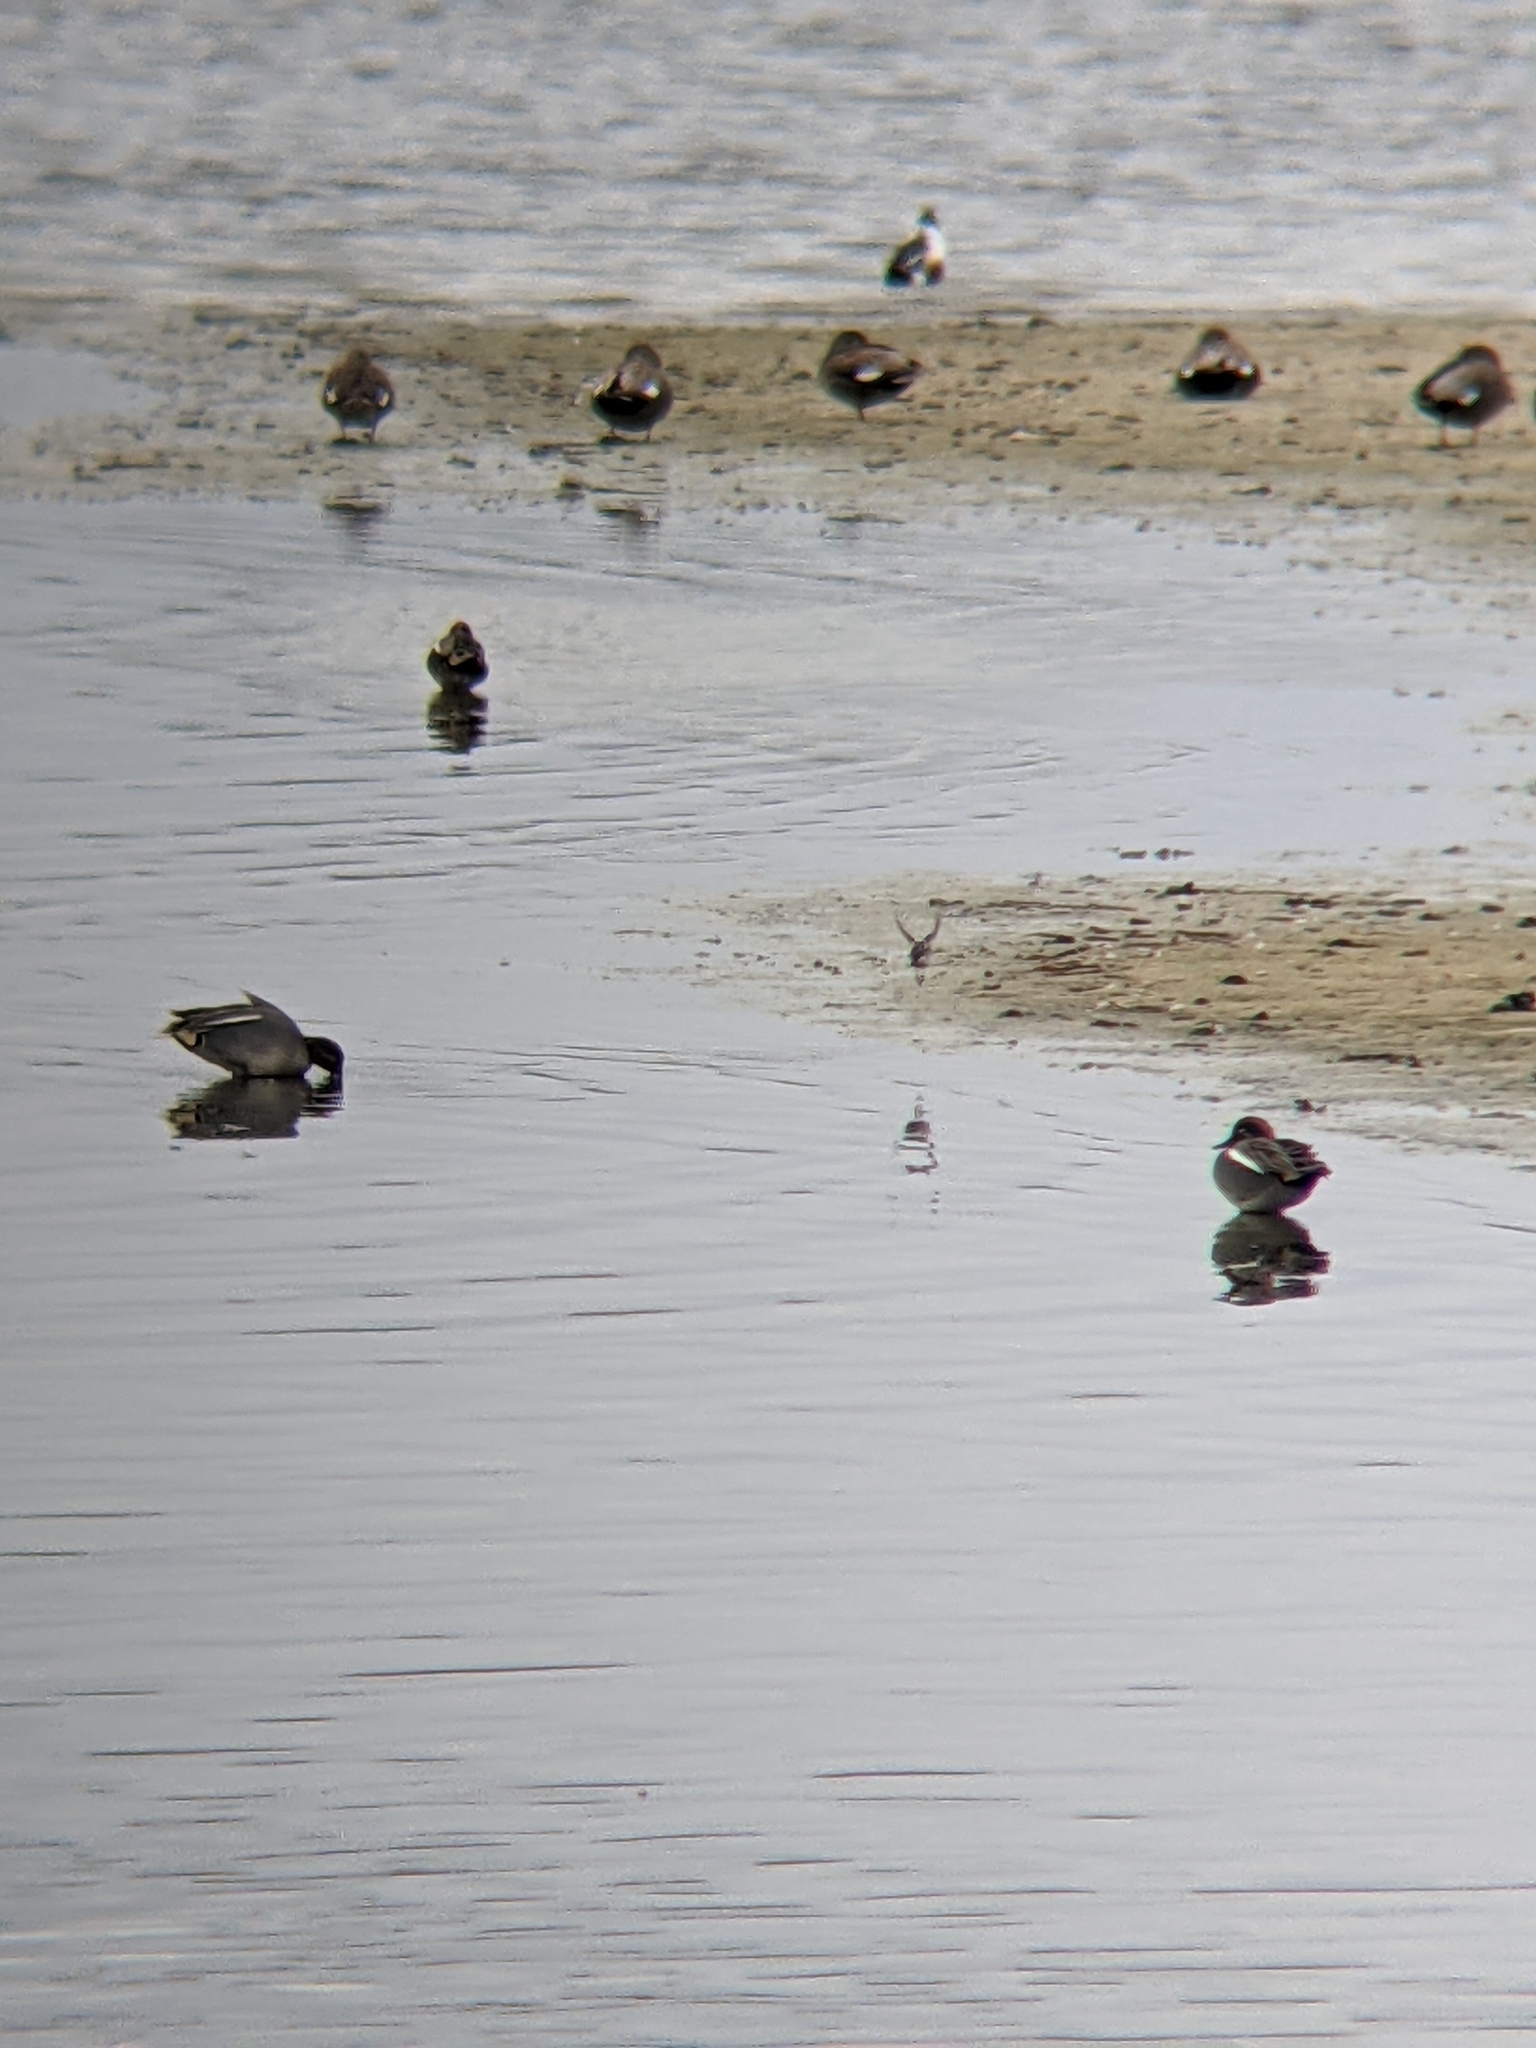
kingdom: Animalia
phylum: Chordata
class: Aves
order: Anseriformes
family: Anatidae
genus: Anas
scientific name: Anas crecca
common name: Eurasian teal
